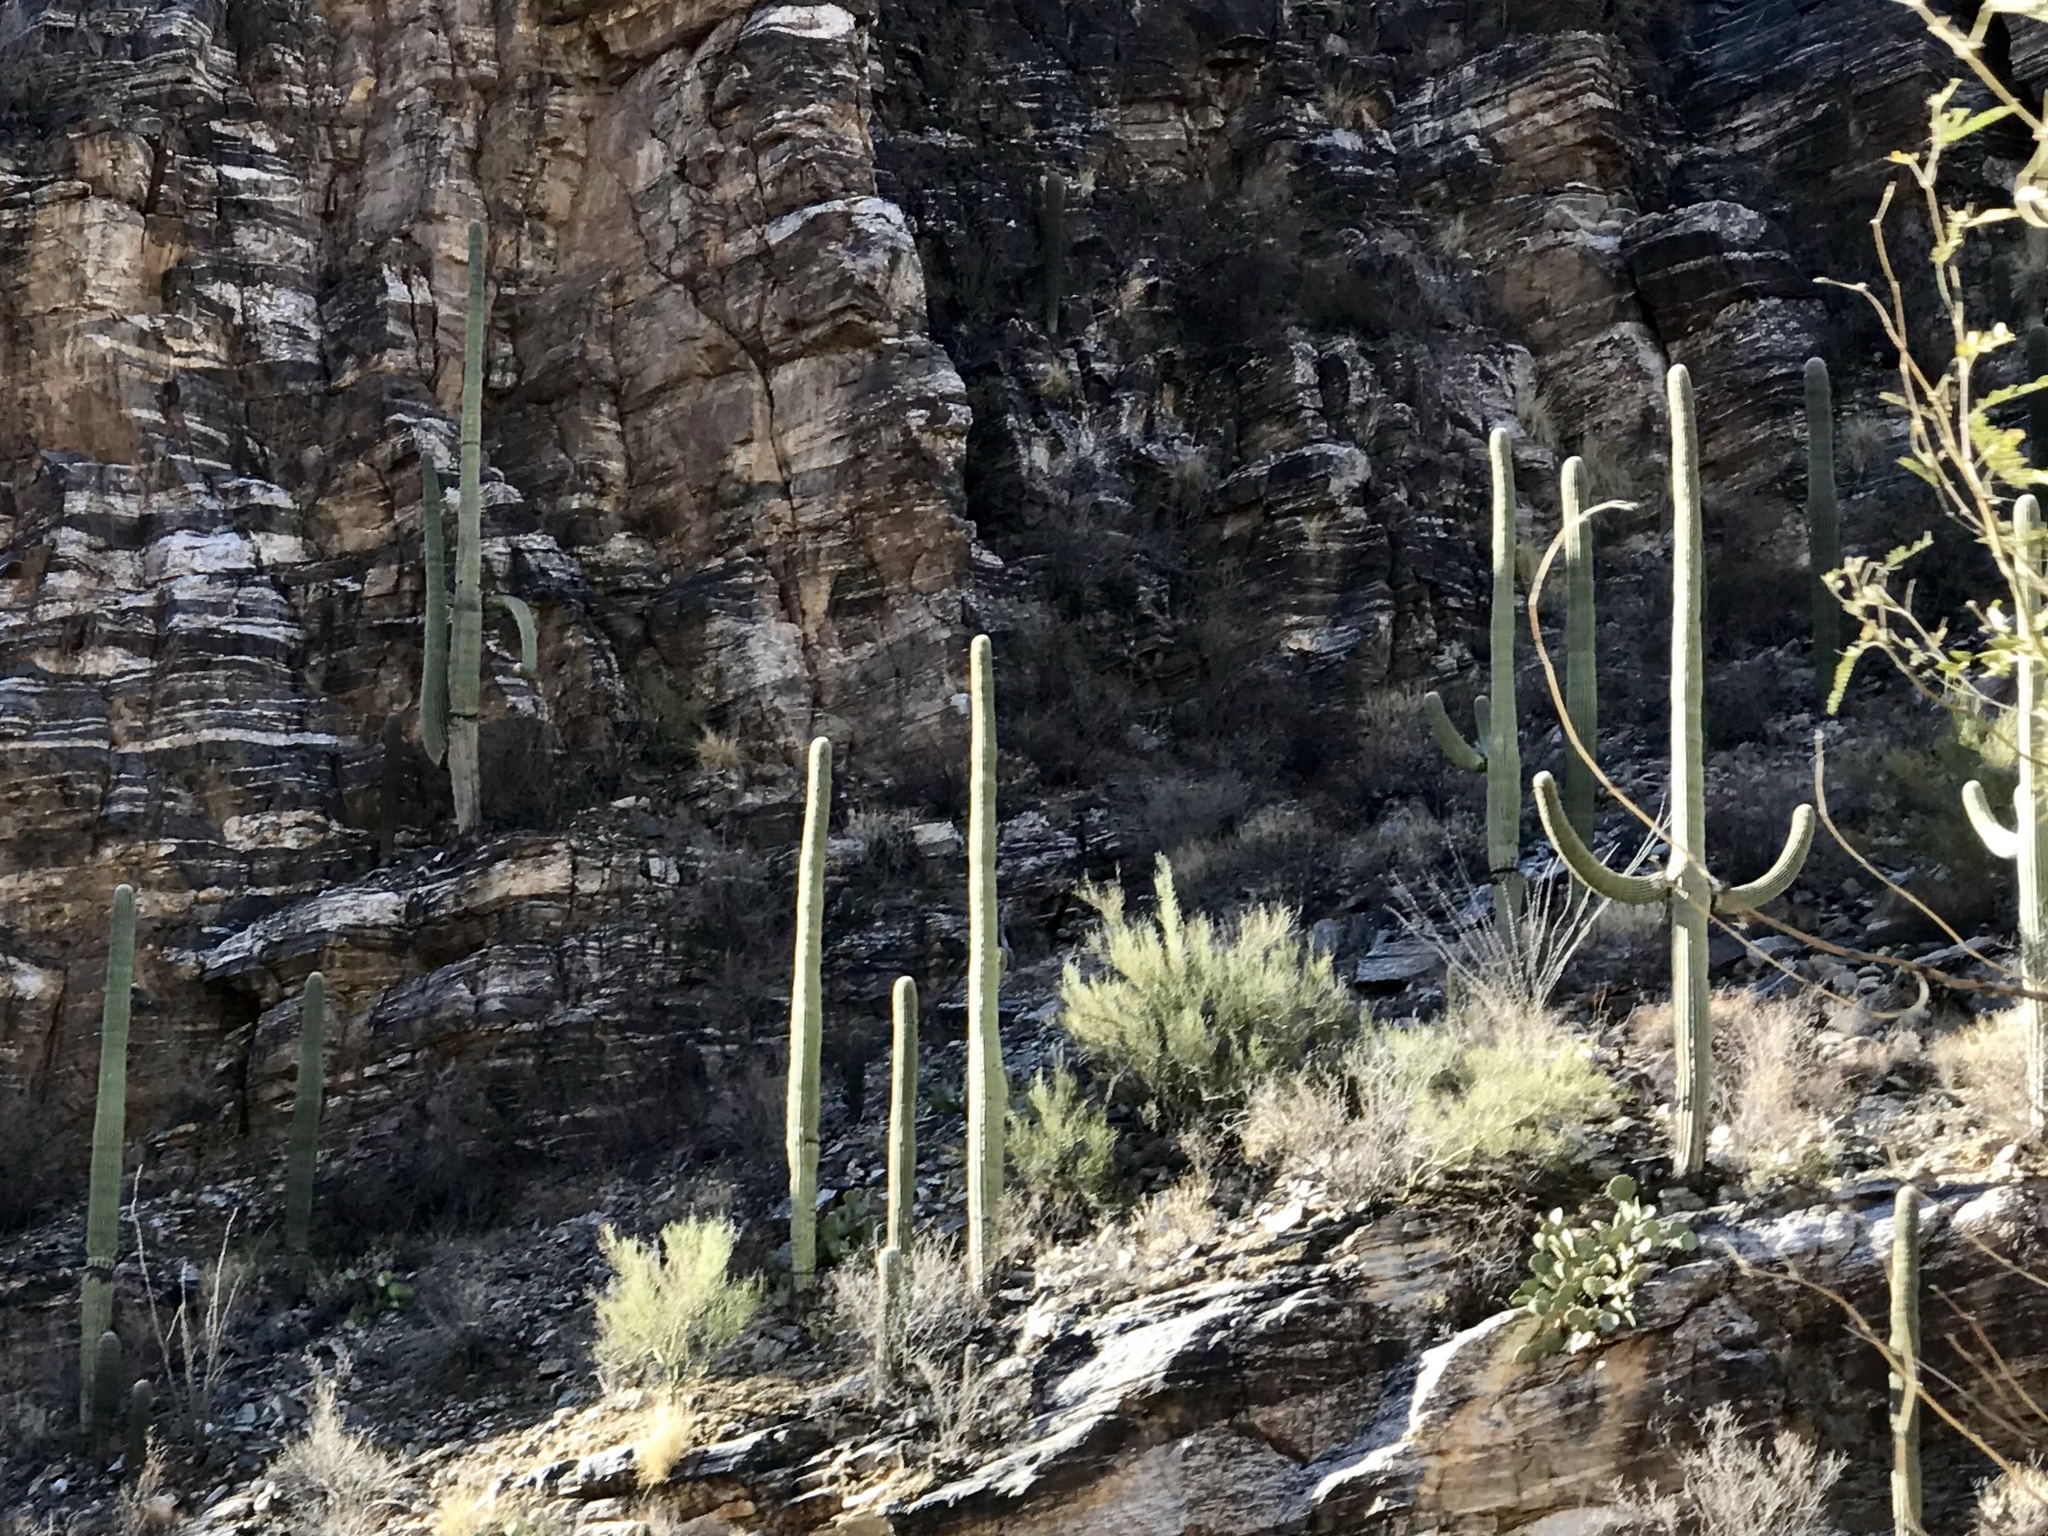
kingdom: Plantae
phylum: Tracheophyta
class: Magnoliopsida
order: Caryophyllales
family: Cactaceae
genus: Carnegiea
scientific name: Carnegiea gigantea
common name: Saguaro
